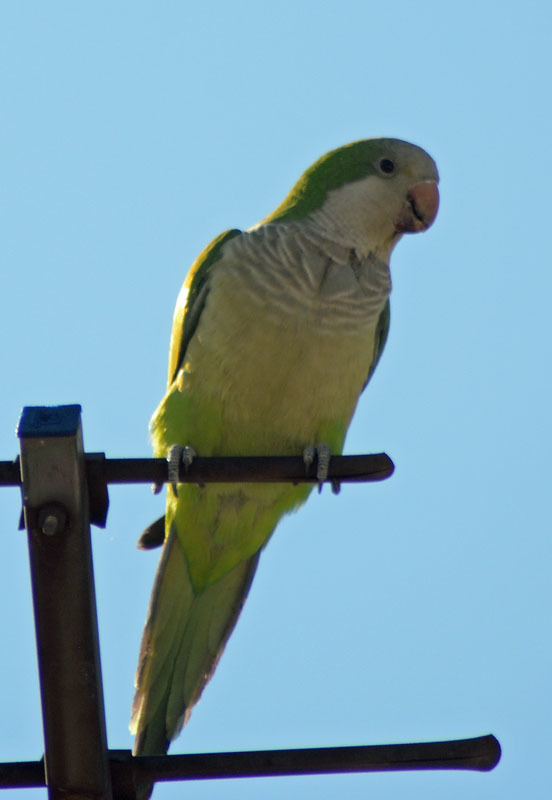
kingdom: Animalia
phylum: Chordata
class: Aves
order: Psittaciformes
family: Psittacidae
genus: Myiopsitta
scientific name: Myiopsitta monachus
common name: Monk parakeet
